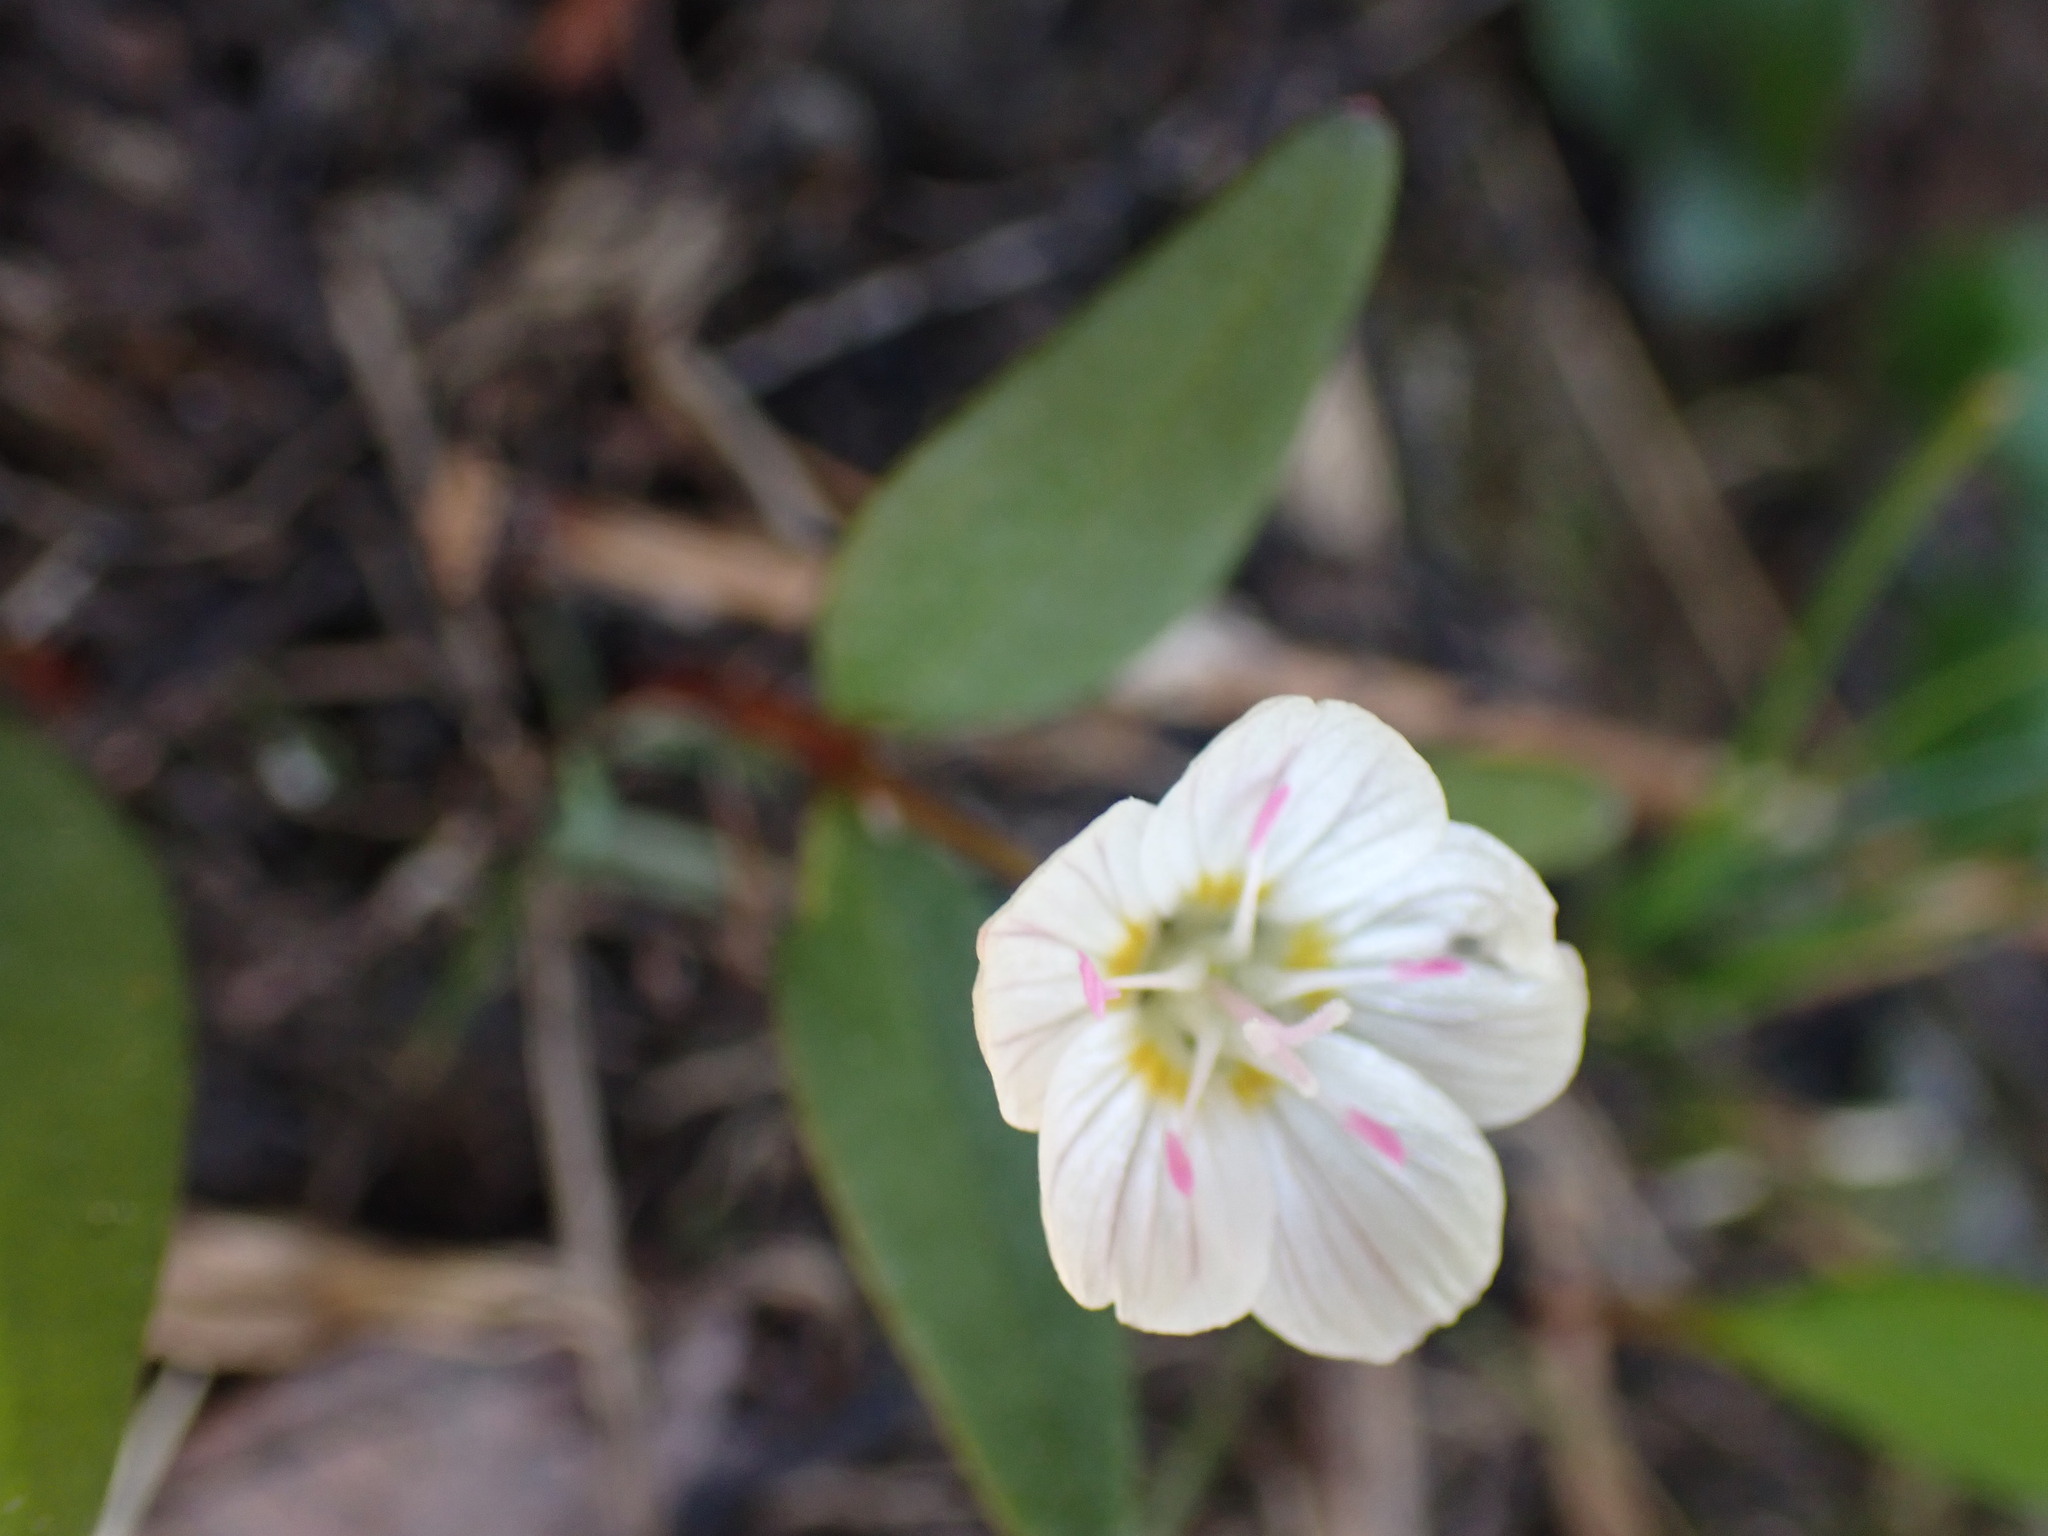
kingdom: Plantae
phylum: Tracheophyta
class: Magnoliopsida
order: Caryophyllales
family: Montiaceae
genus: Claytonia
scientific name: Claytonia lanceolata
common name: Western spring-beauty
